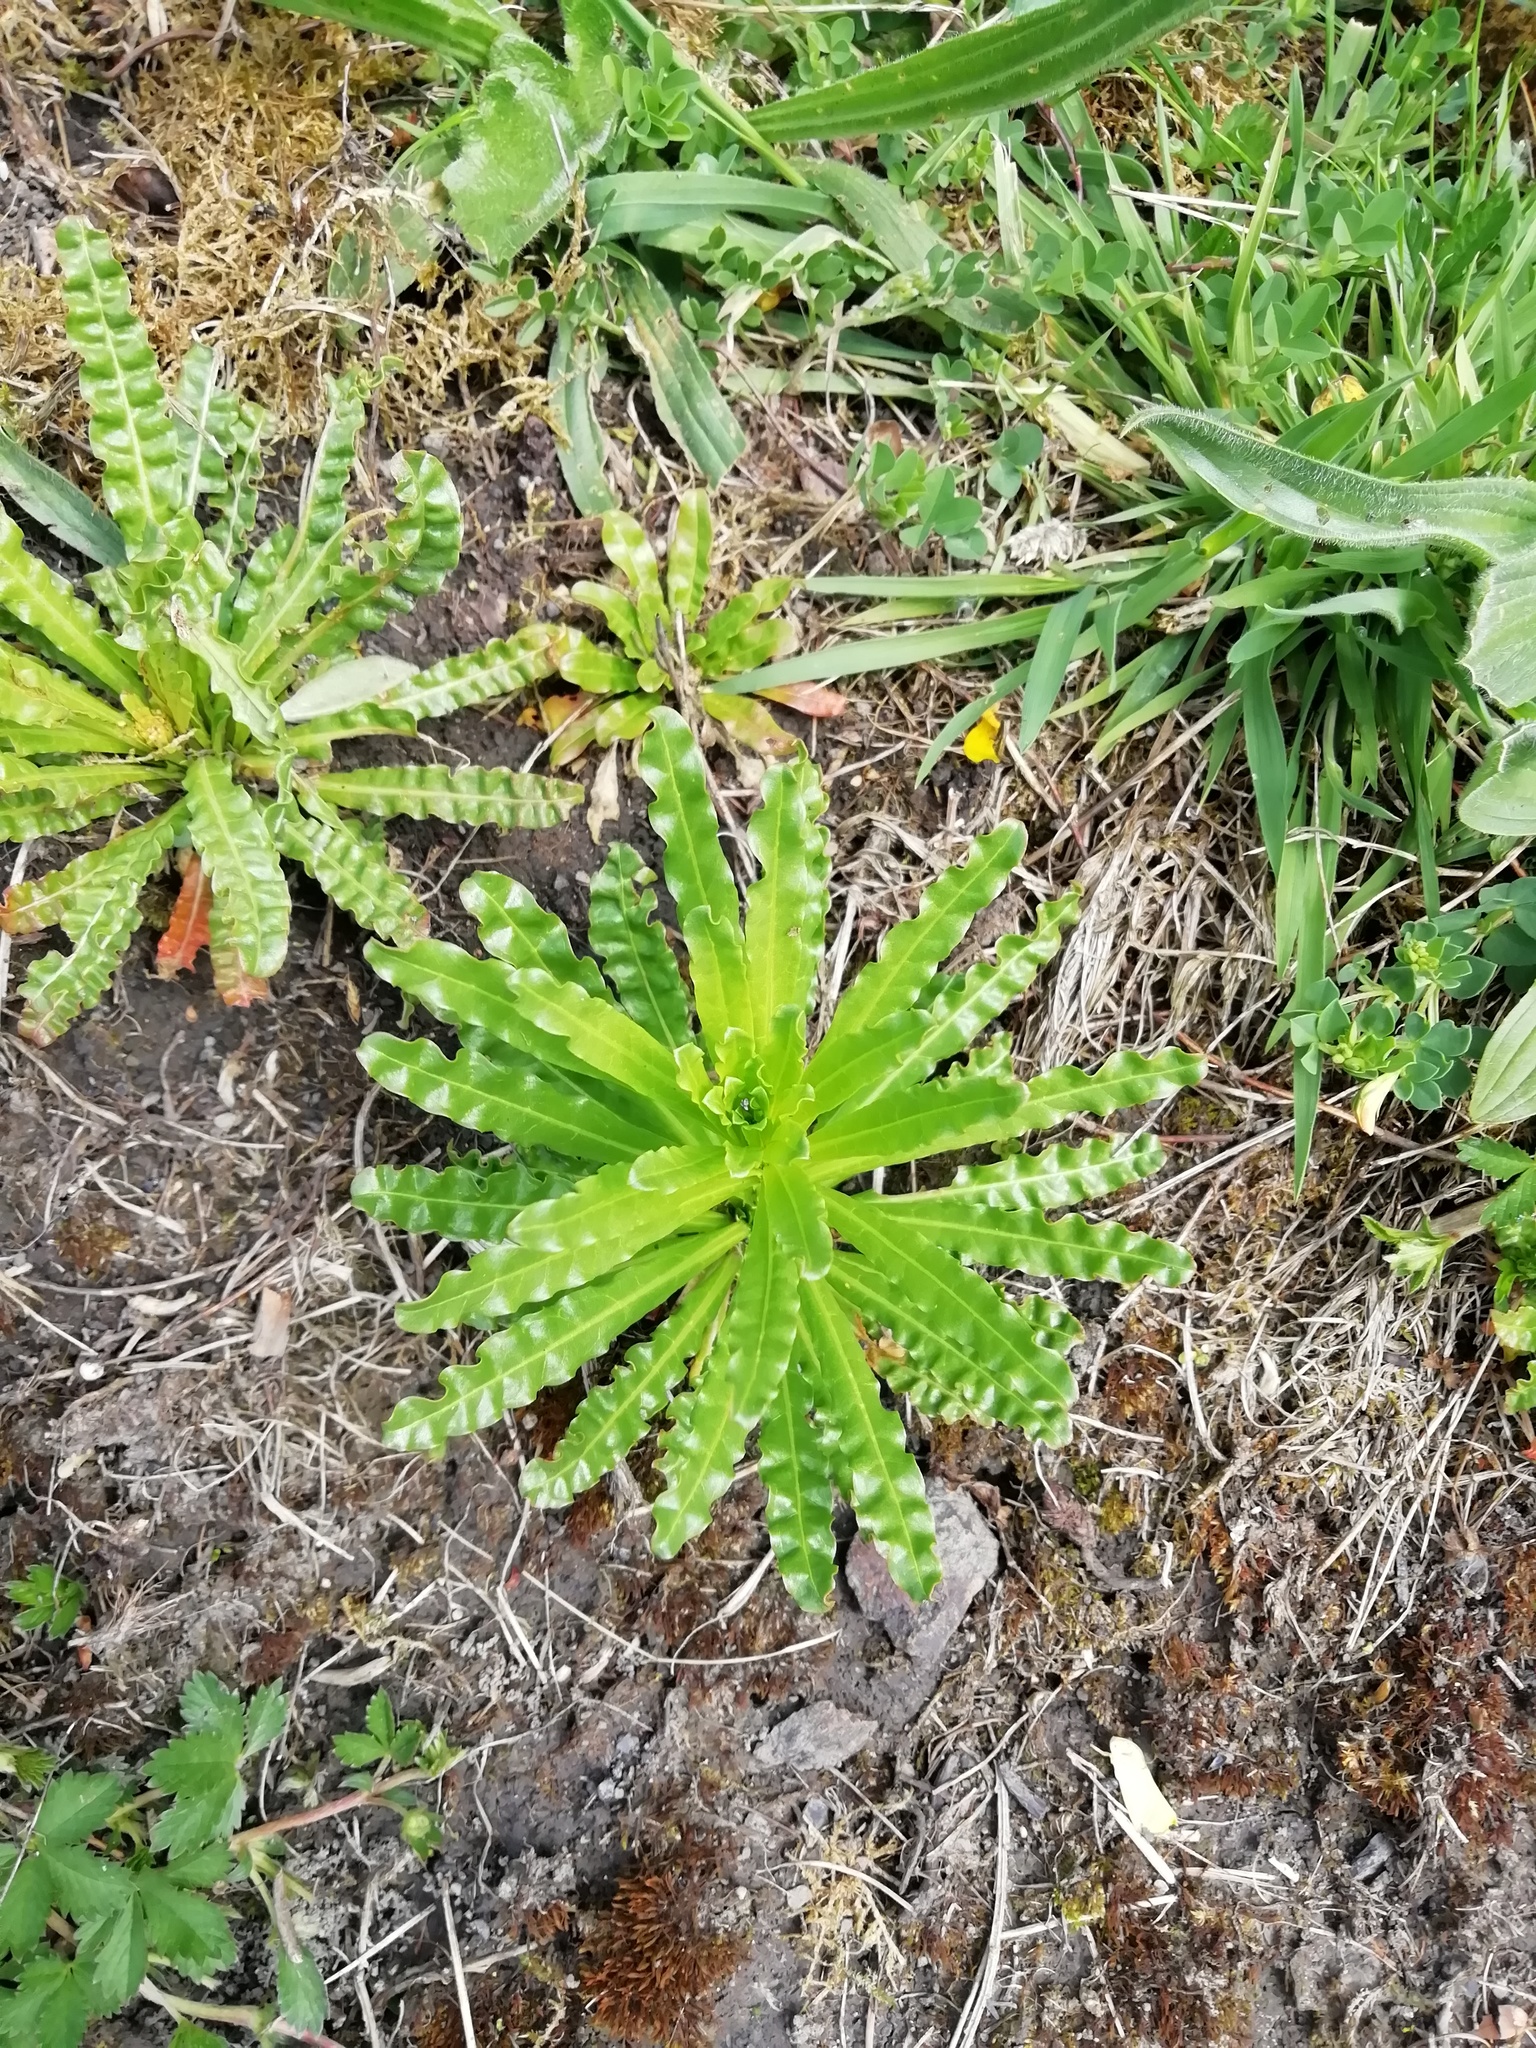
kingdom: Plantae
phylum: Tracheophyta
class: Magnoliopsida
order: Brassicales
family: Resedaceae
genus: Reseda
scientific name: Reseda luteola
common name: Weld
